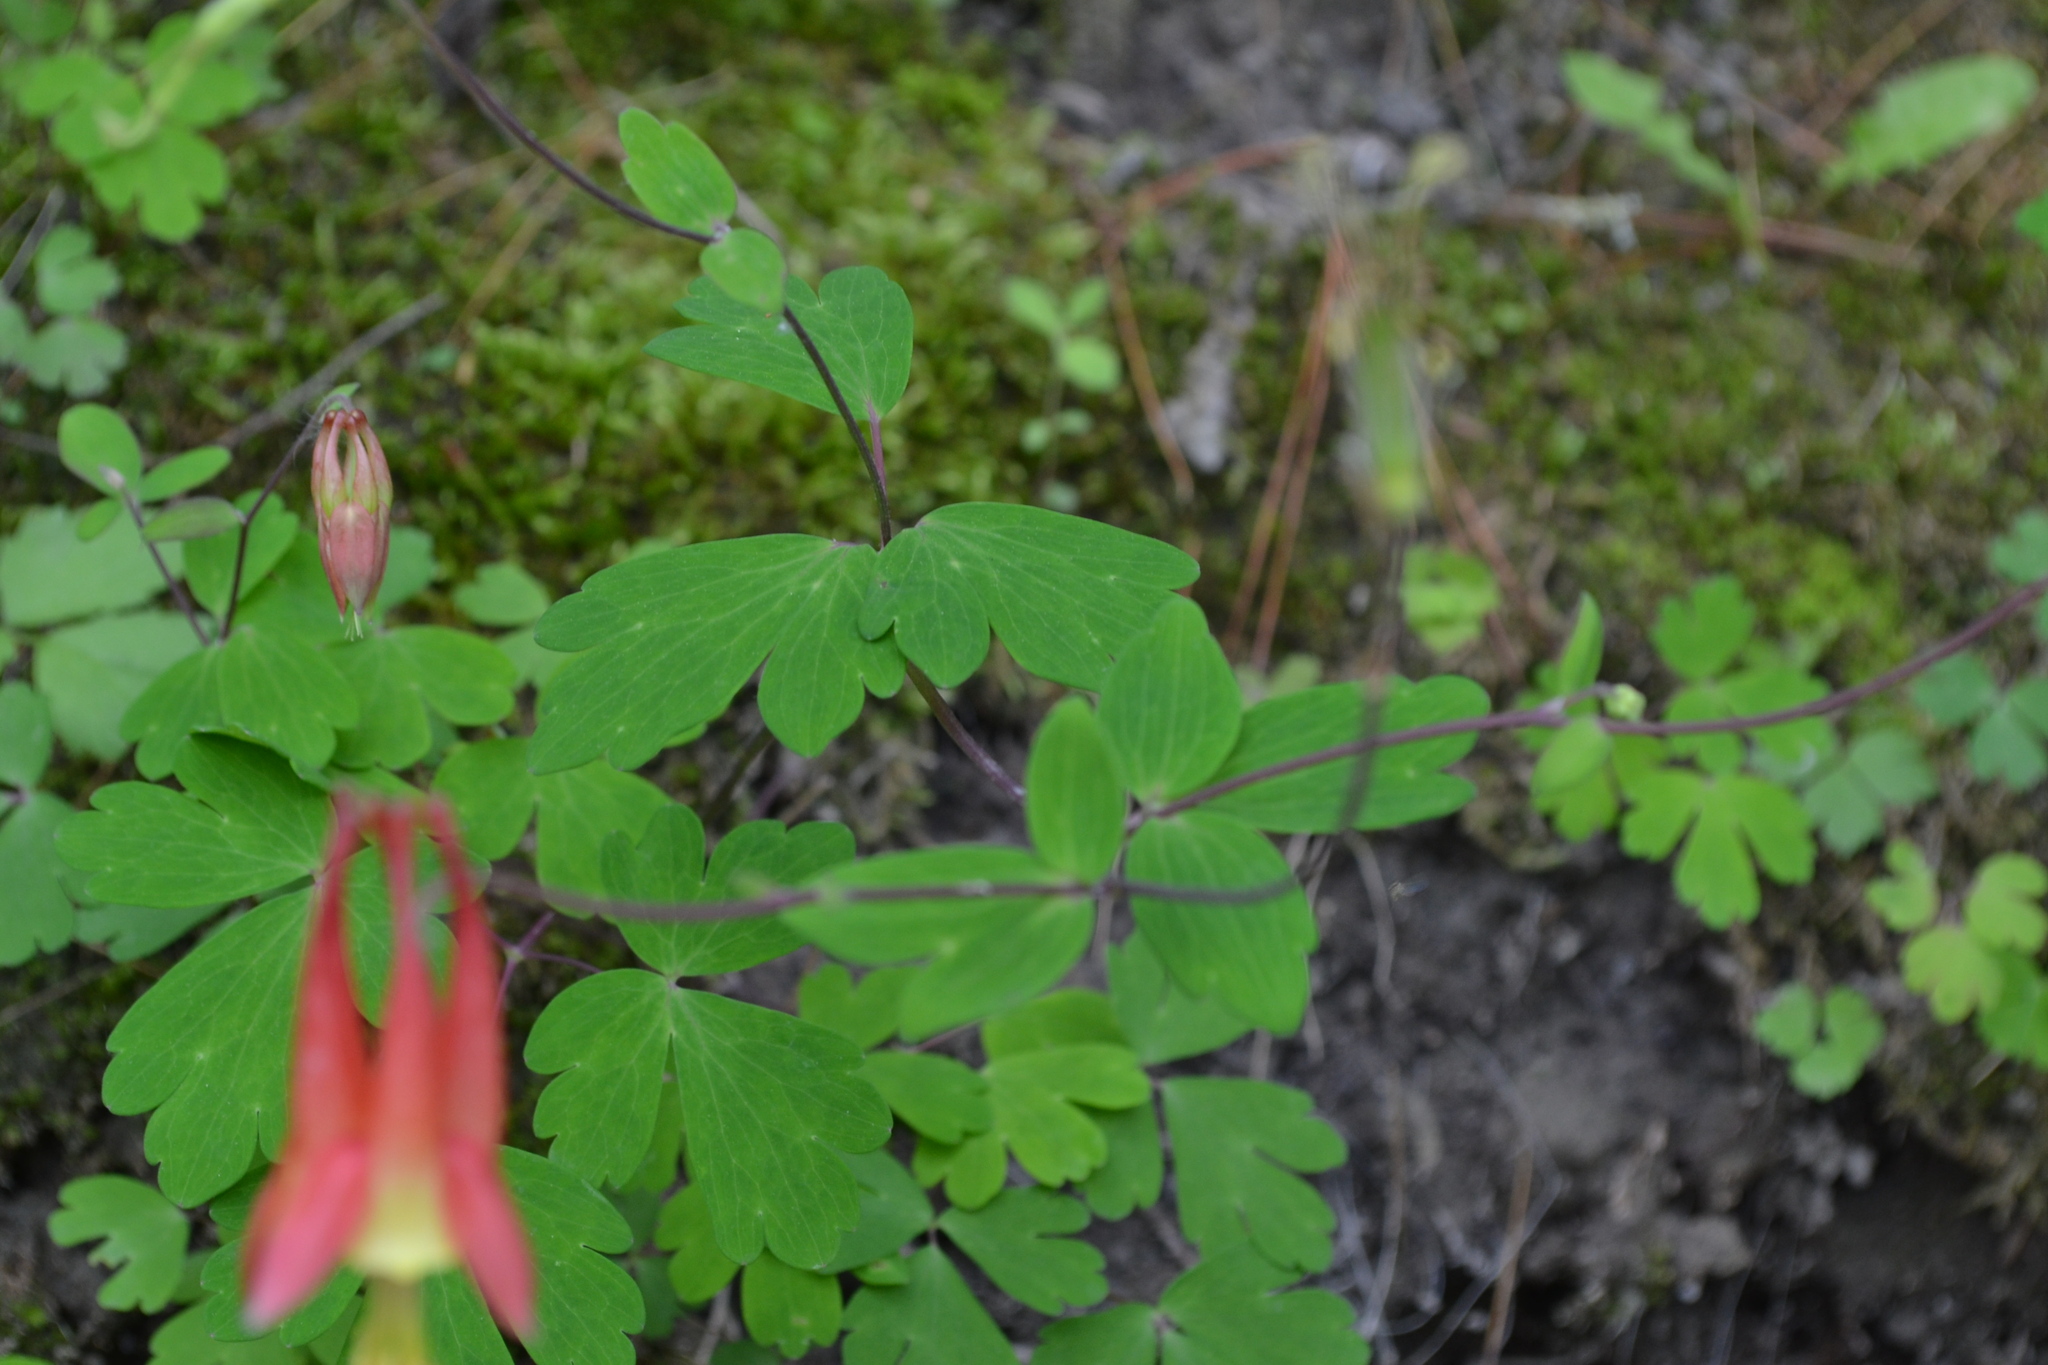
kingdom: Plantae
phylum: Tracheophyta
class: Magnoliopsida
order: Ranunculales
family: Ranunculaceae
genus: Aquilegia
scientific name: Aquilegia canadensis
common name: American columbine
